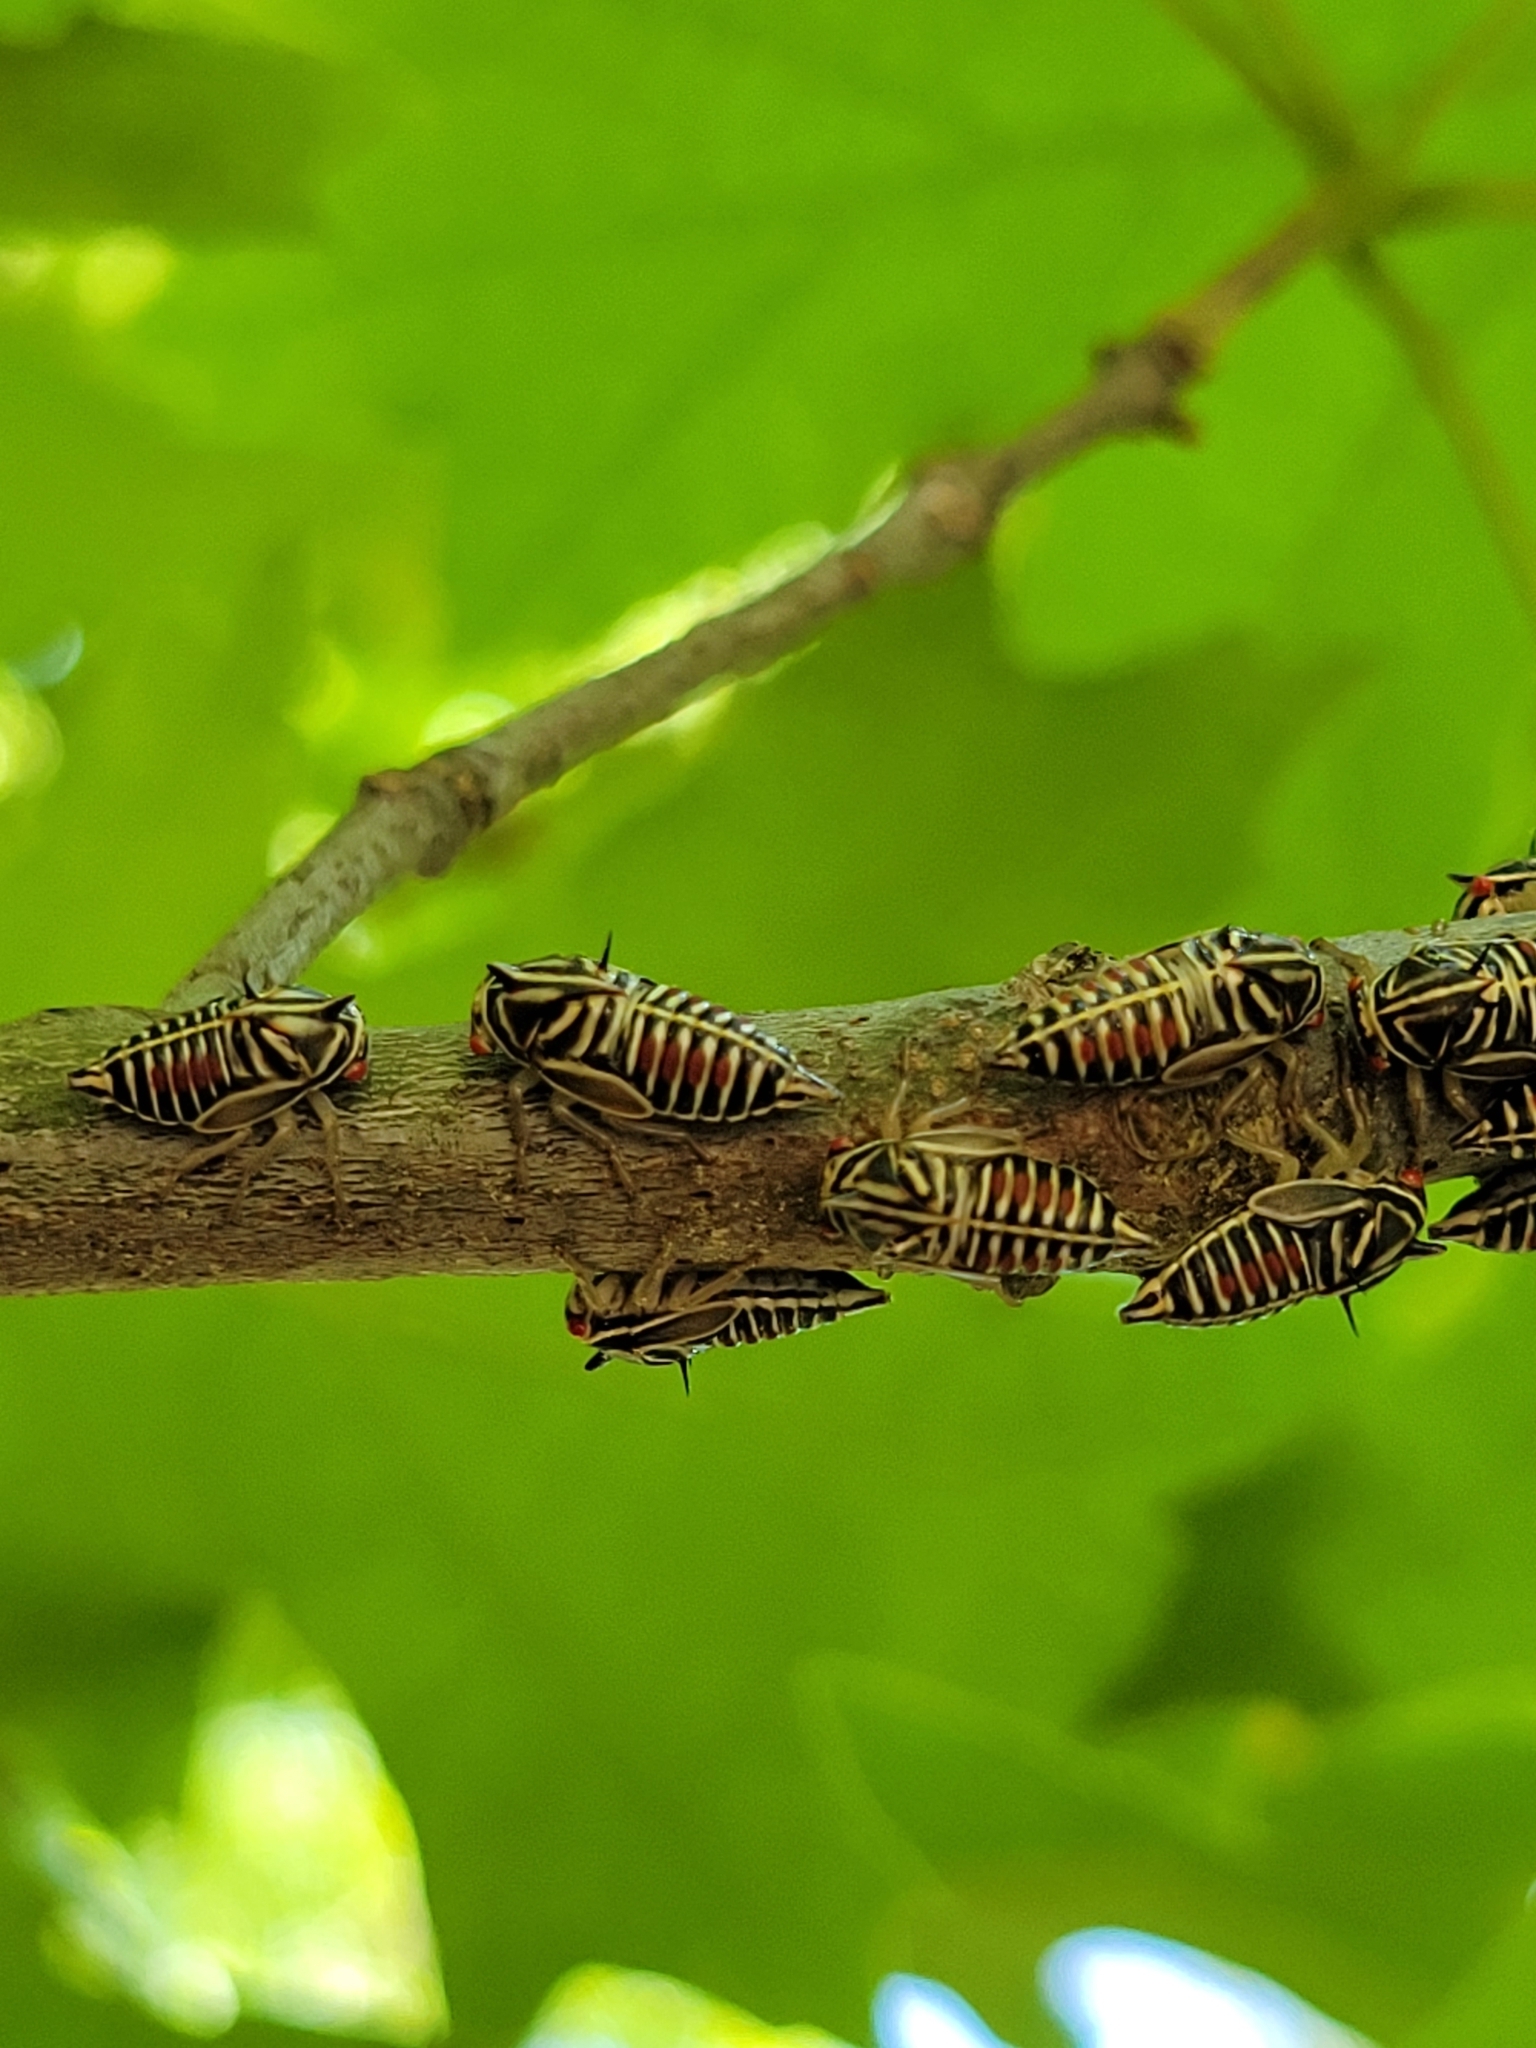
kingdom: Animalia
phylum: Arthropoda
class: Insecta
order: Hemiptera
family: Membracidae
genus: Platycotis
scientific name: Platycotis vittatus
